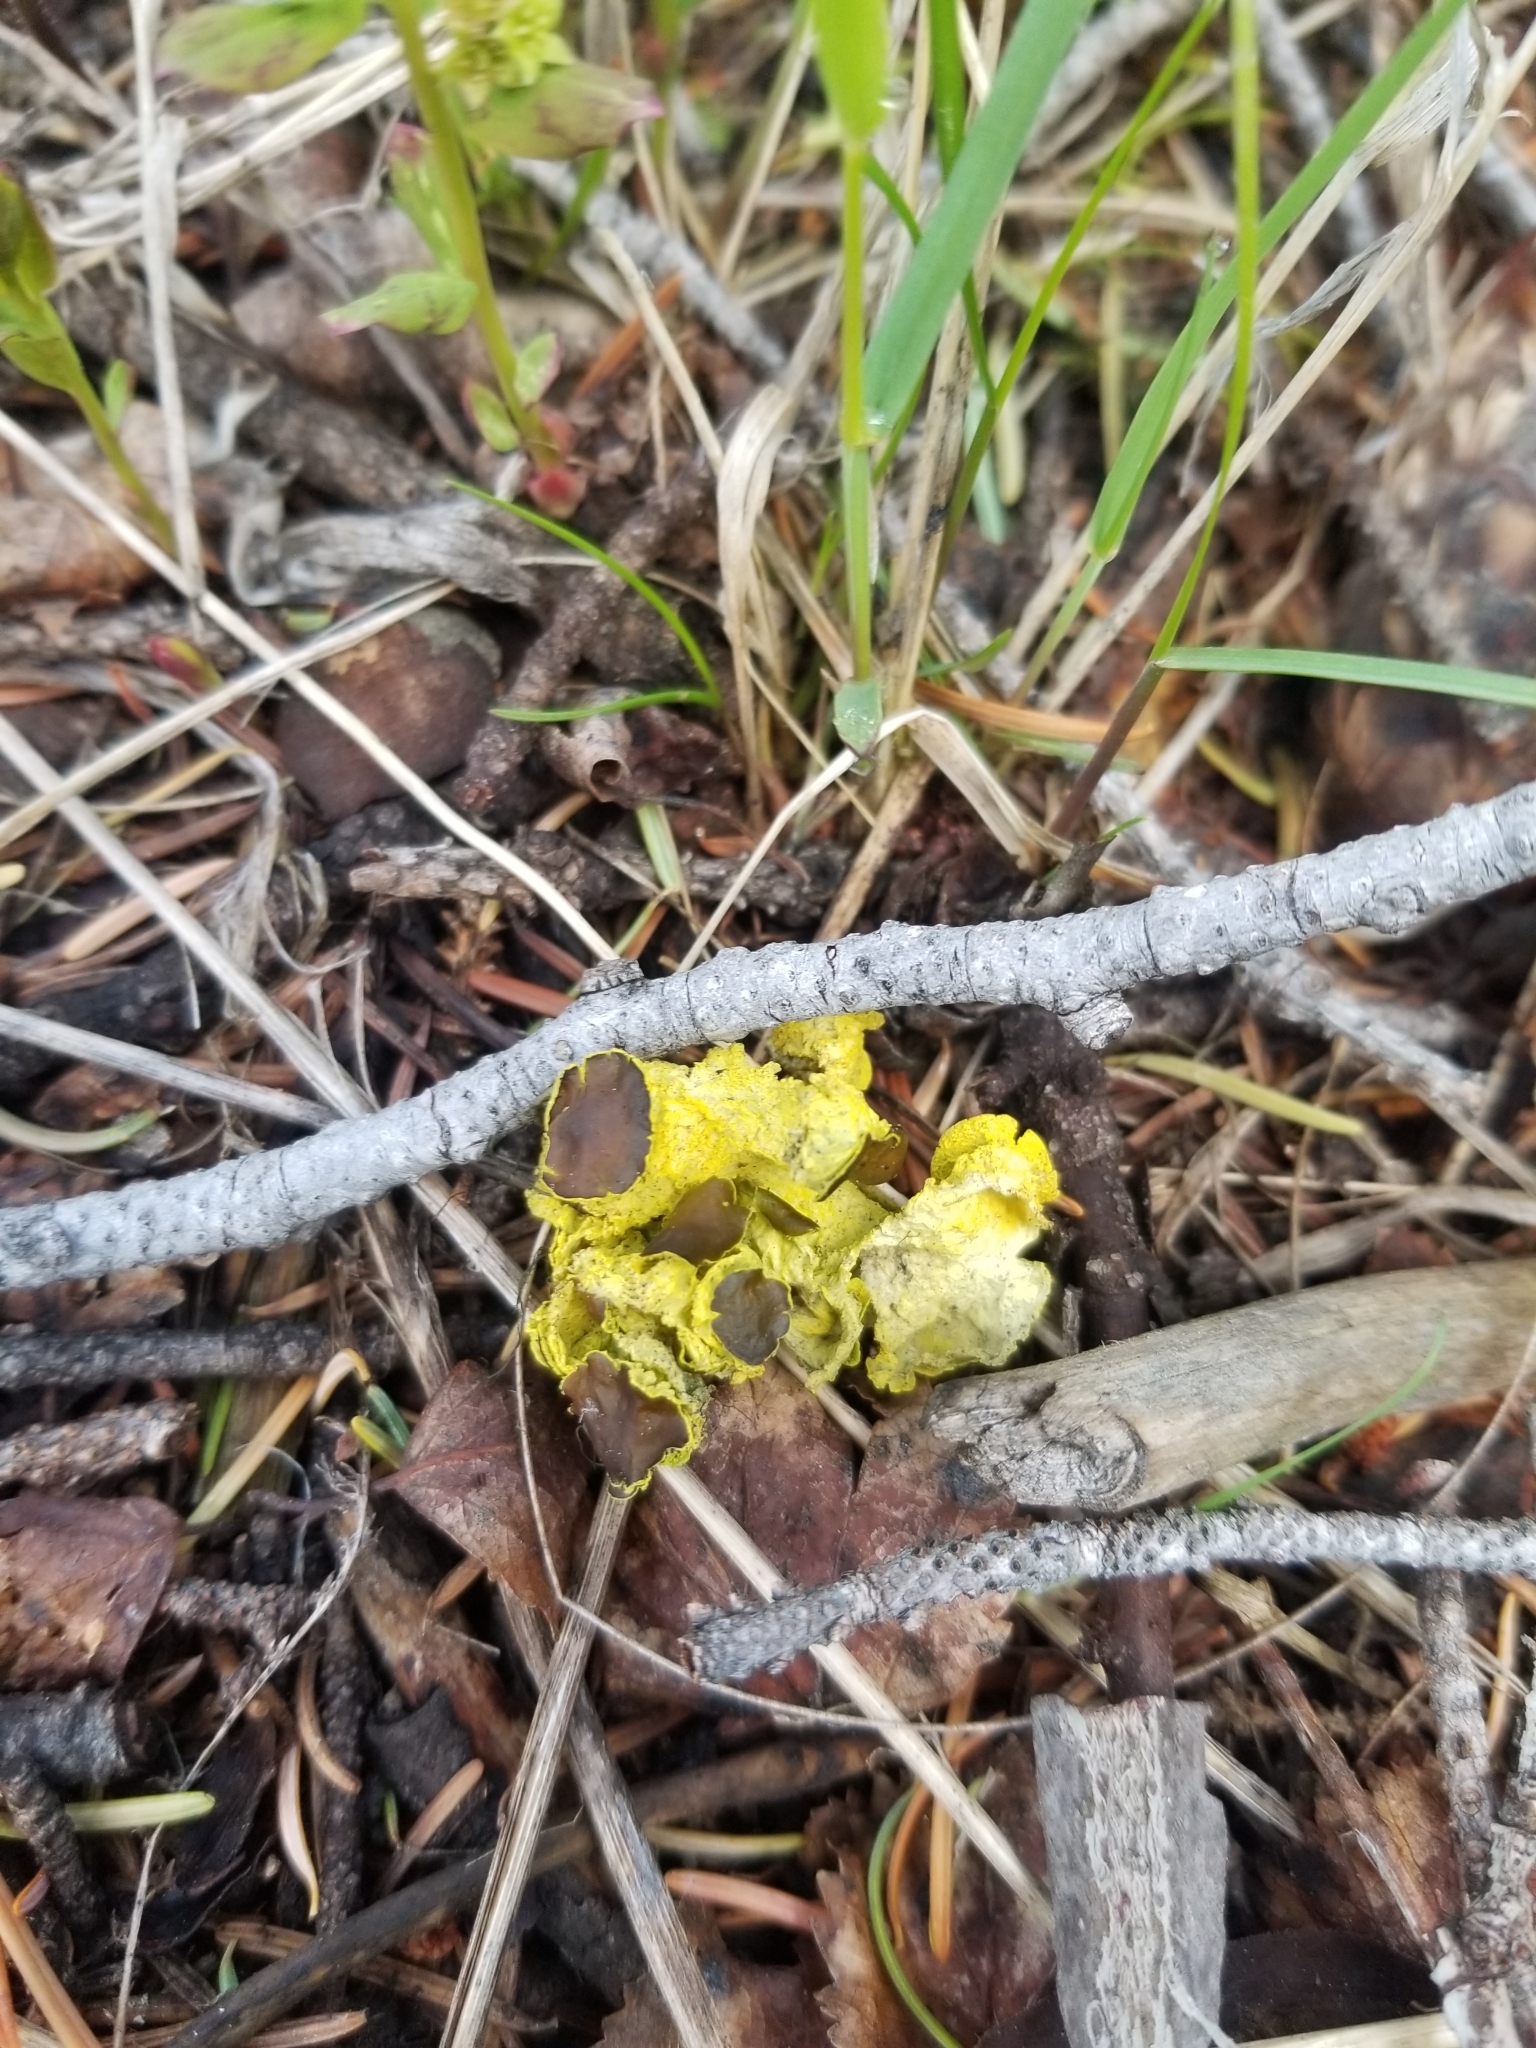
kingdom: Fungi
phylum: Ascomycota
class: Lecanoromycetes
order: Lecanorales
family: Parmeliaceae
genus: Vulpicida
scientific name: Vulpicida canadensis
